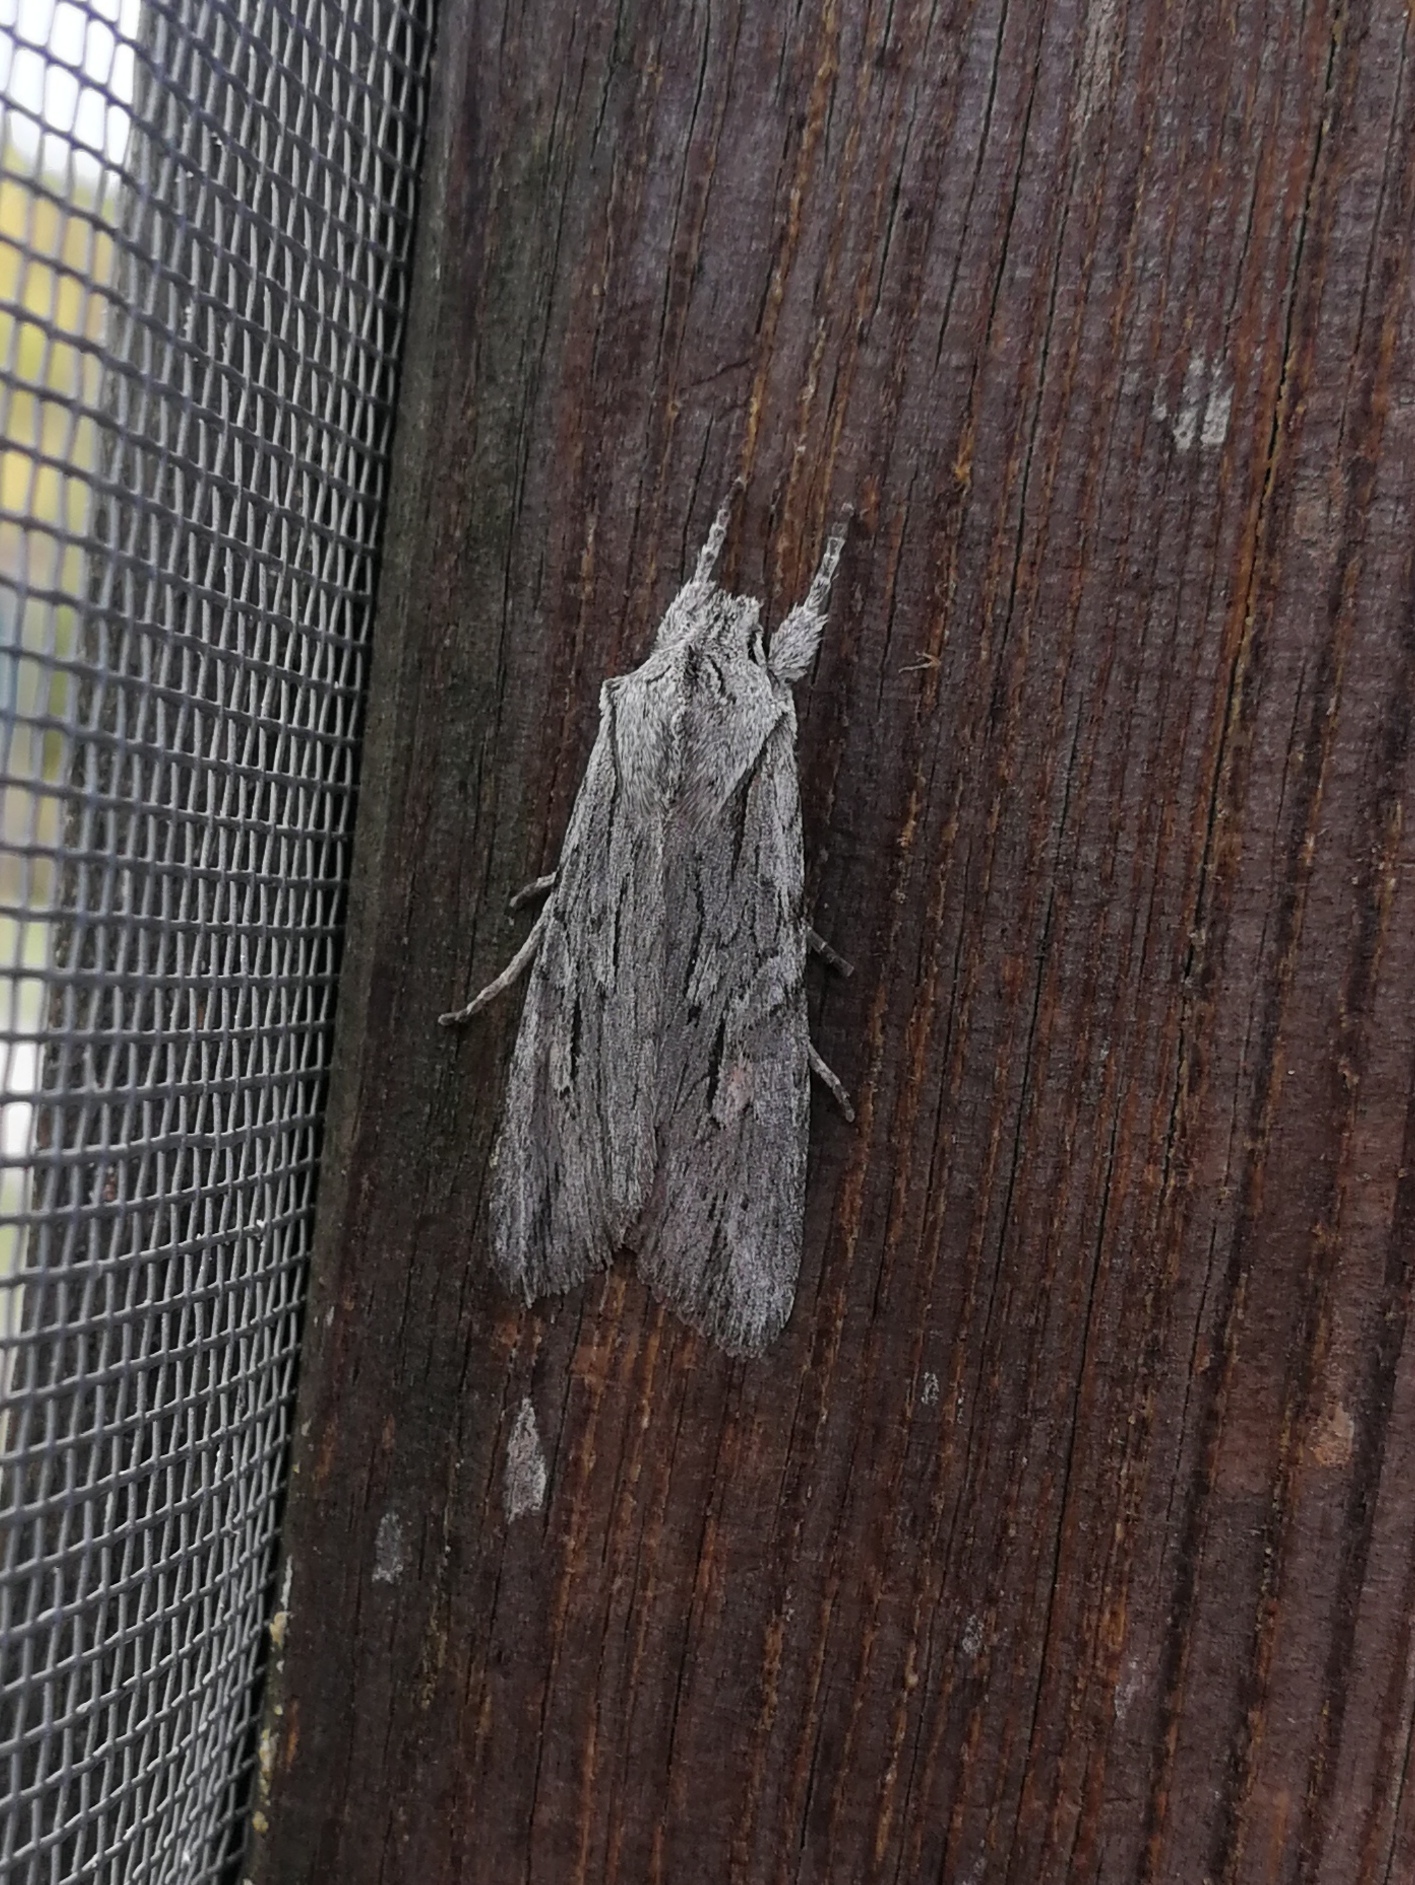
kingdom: Animalia
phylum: Arthropoda
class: Insecta
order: Lepidoptera
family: Noctuidae
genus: Lithophane
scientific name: Lithophane leautieri
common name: Blair's shoulder-knot
